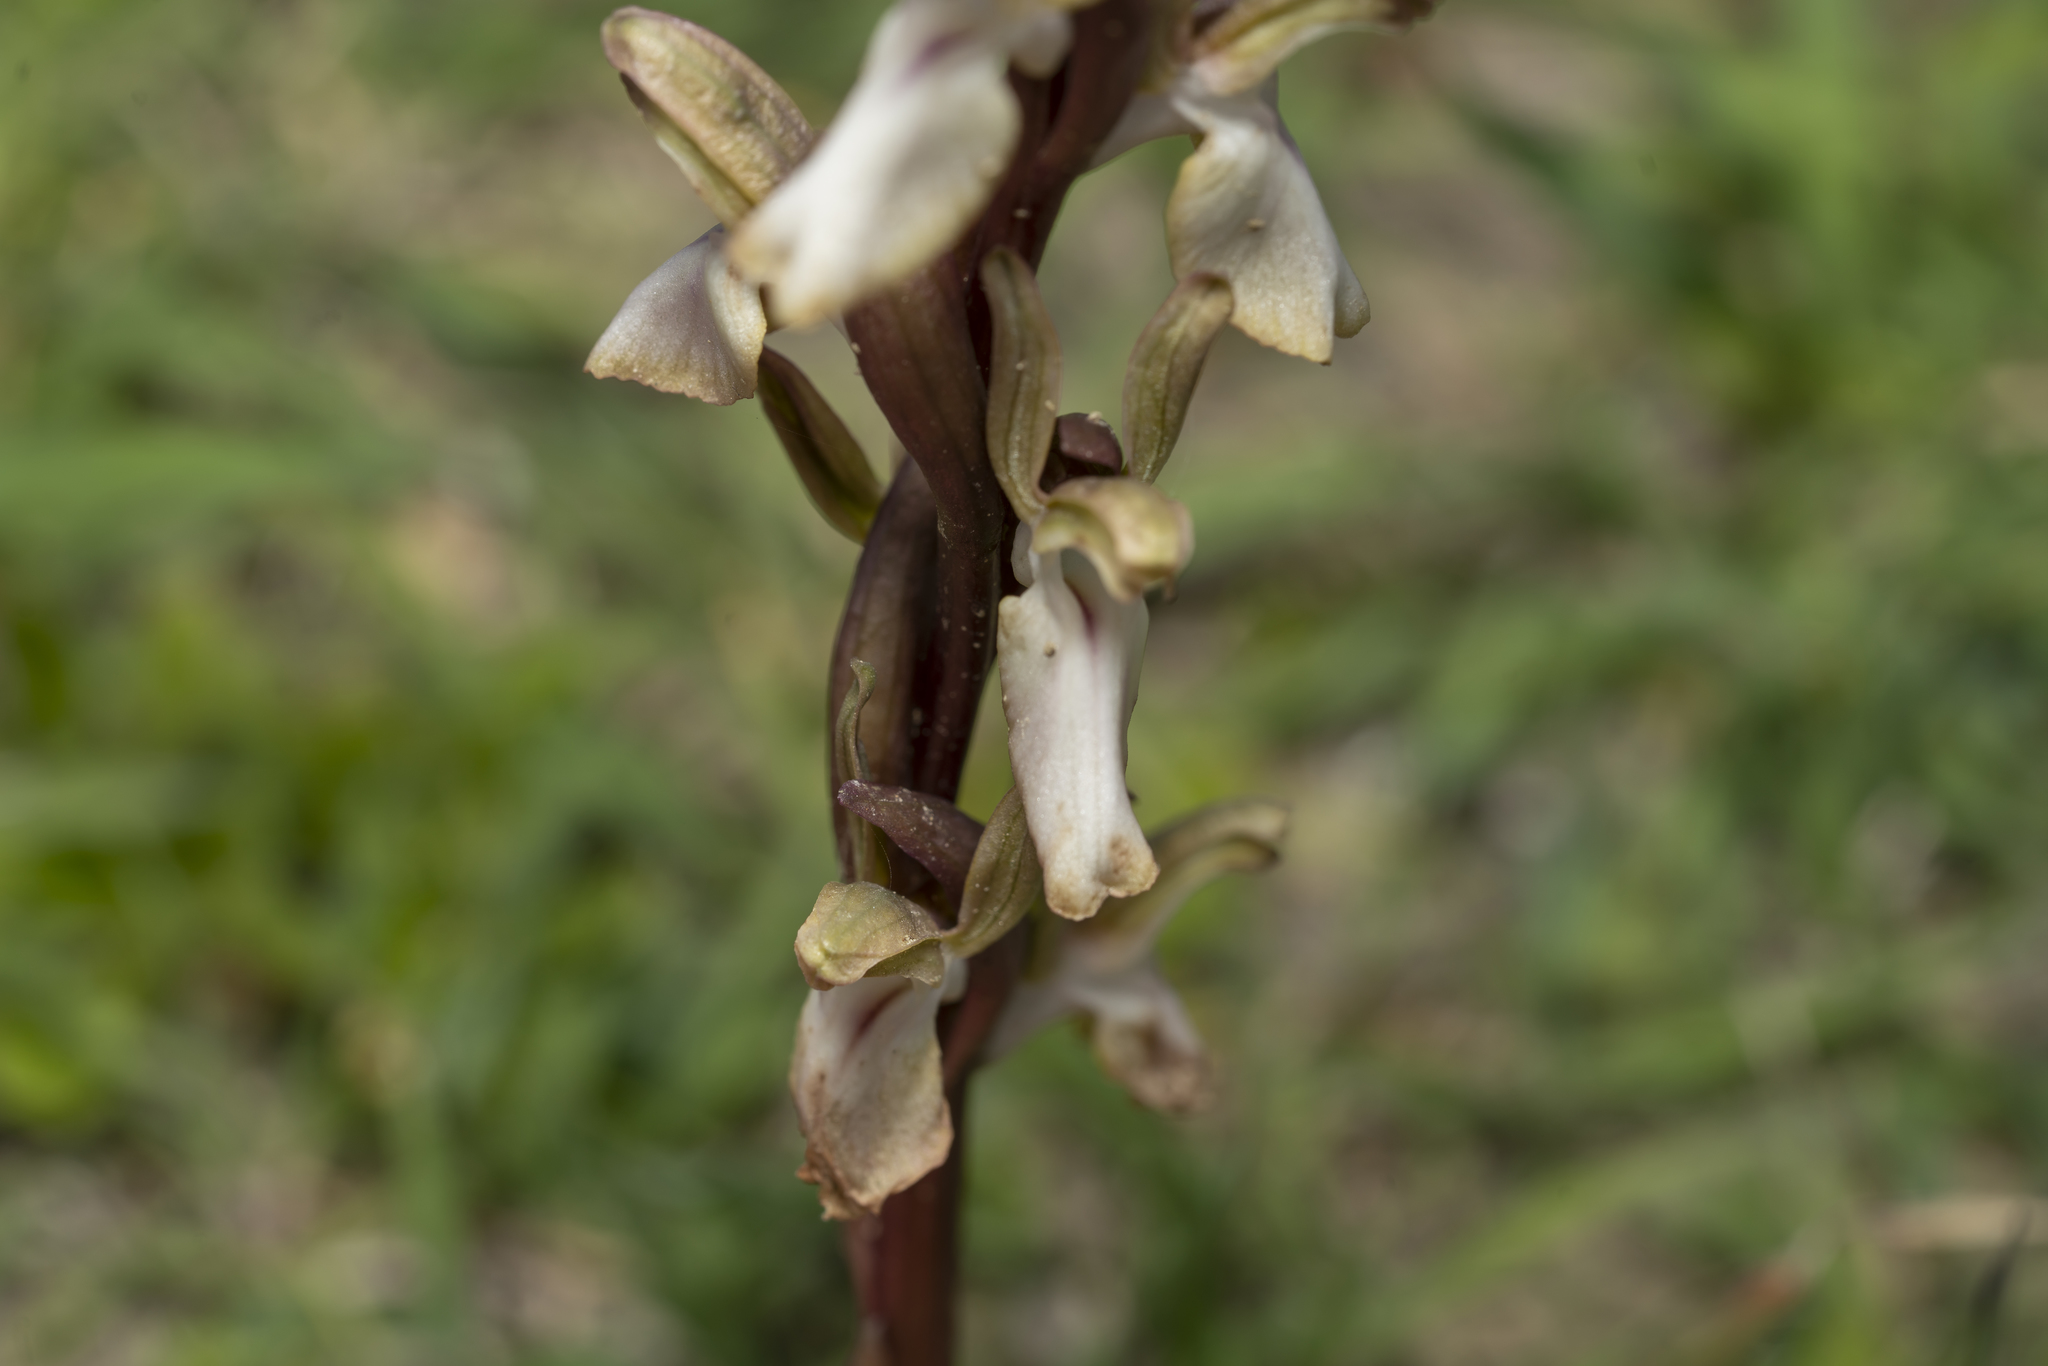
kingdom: Plantae
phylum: Tracheophyta
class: Liliopsida
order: Asparagales
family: Orchidaceae
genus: Anacamptis
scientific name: Anacamptis collina
